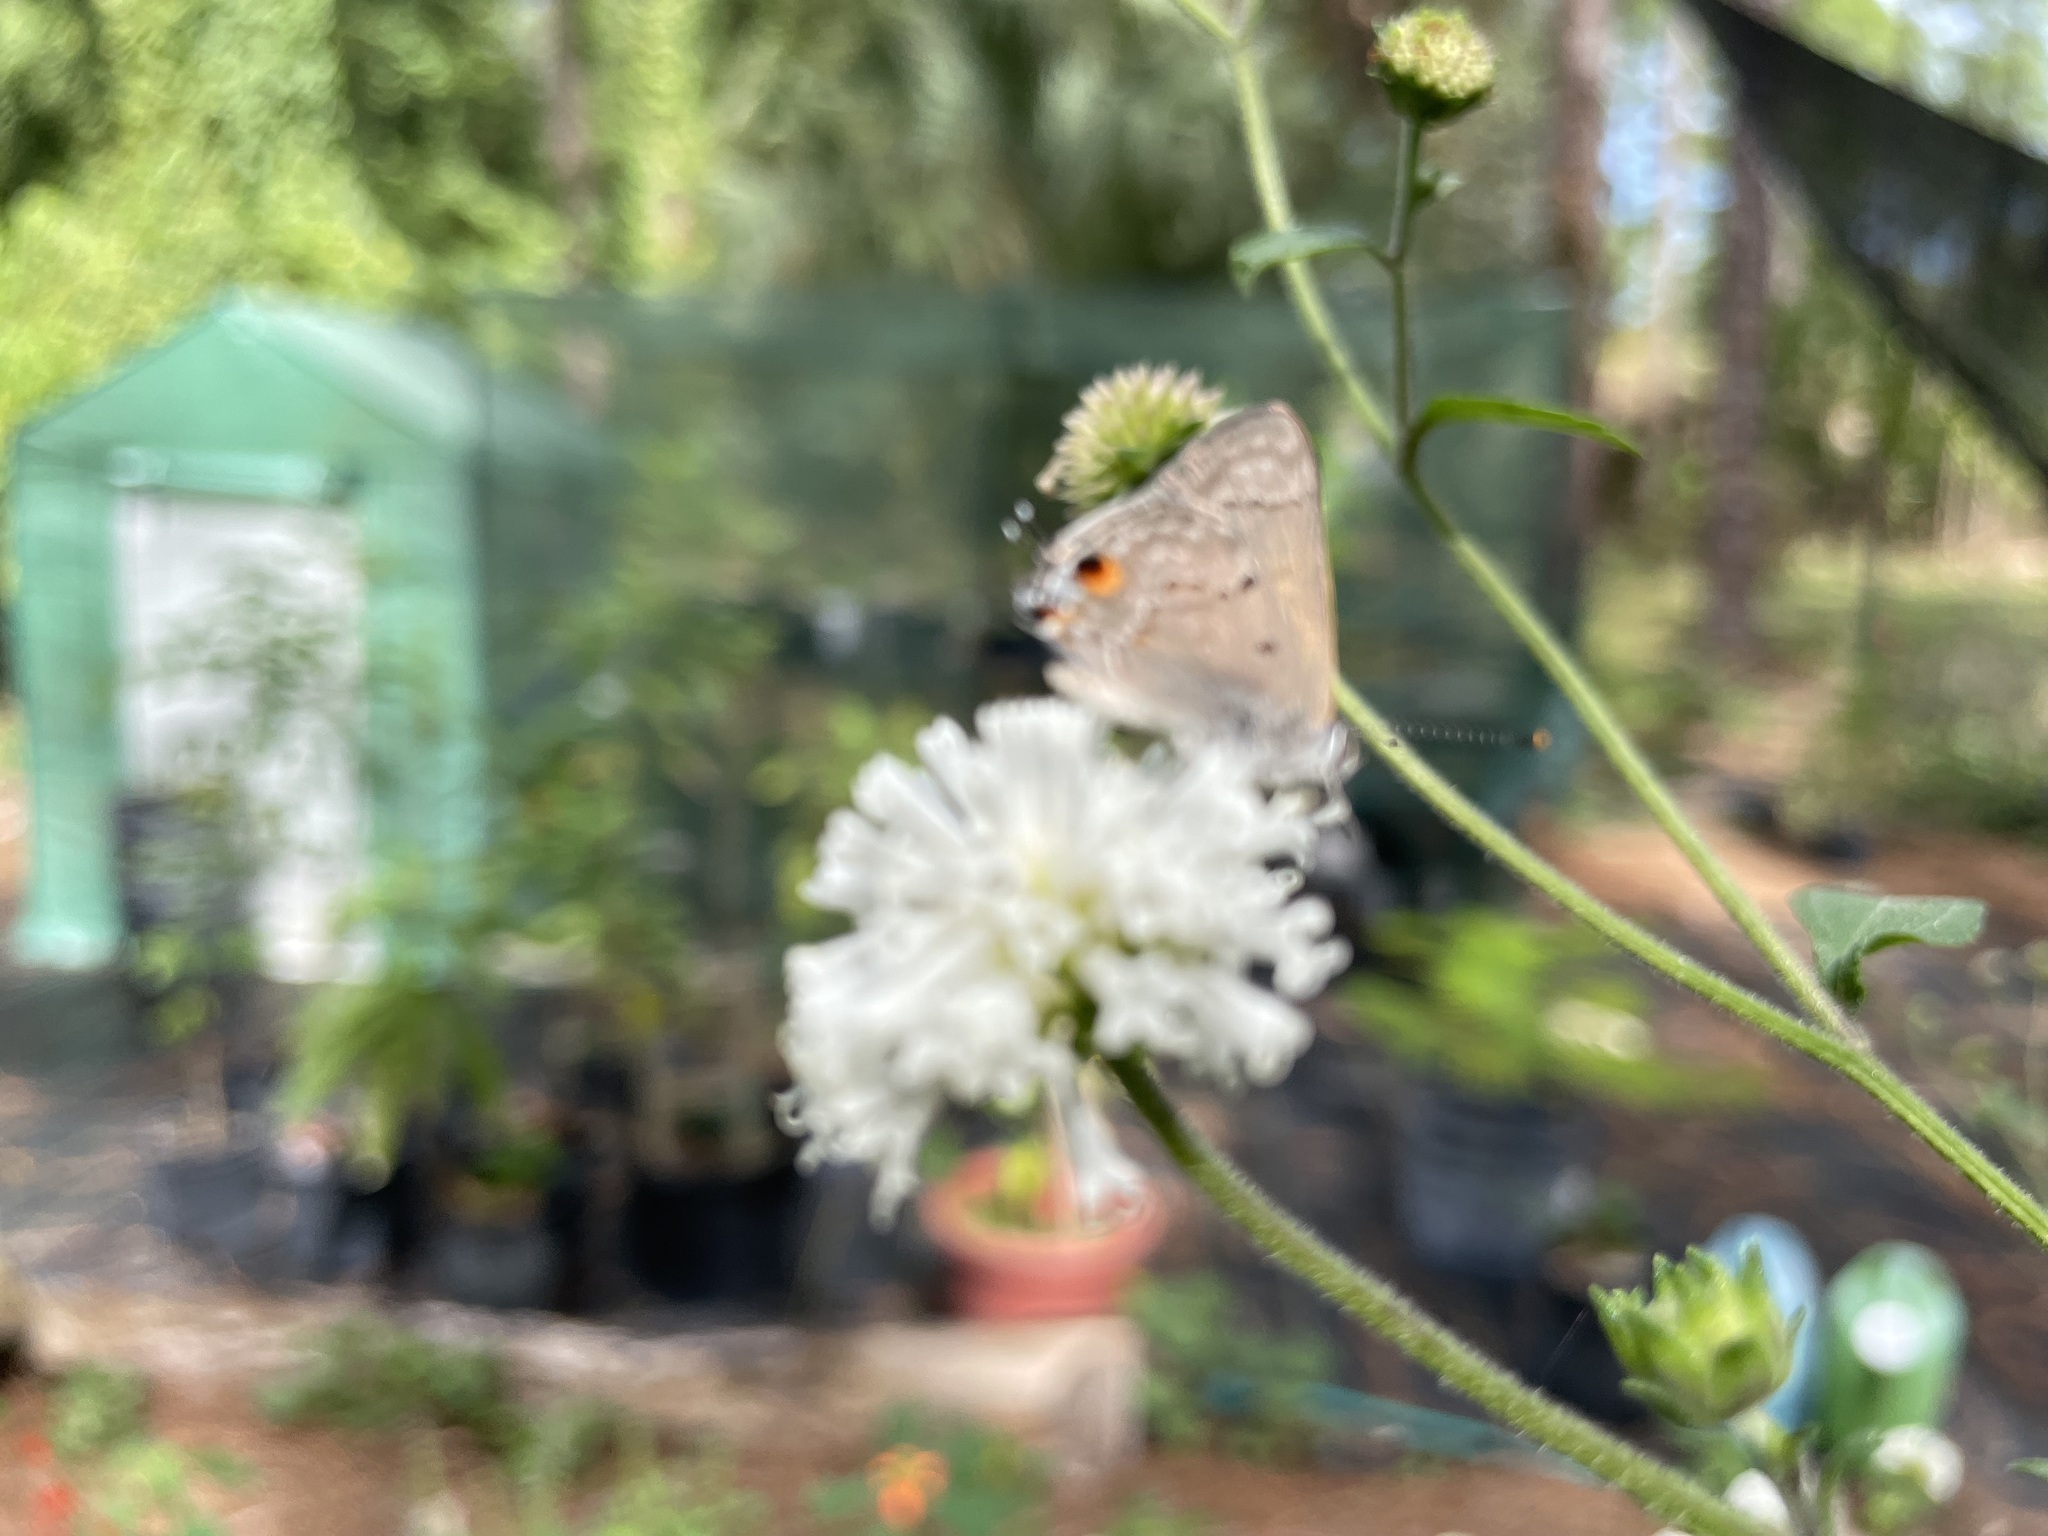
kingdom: Animalia
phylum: Arthropoda
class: Insecta
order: Lepidoptera
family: Lycaenidae
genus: Callicista
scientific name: Callicista columella
